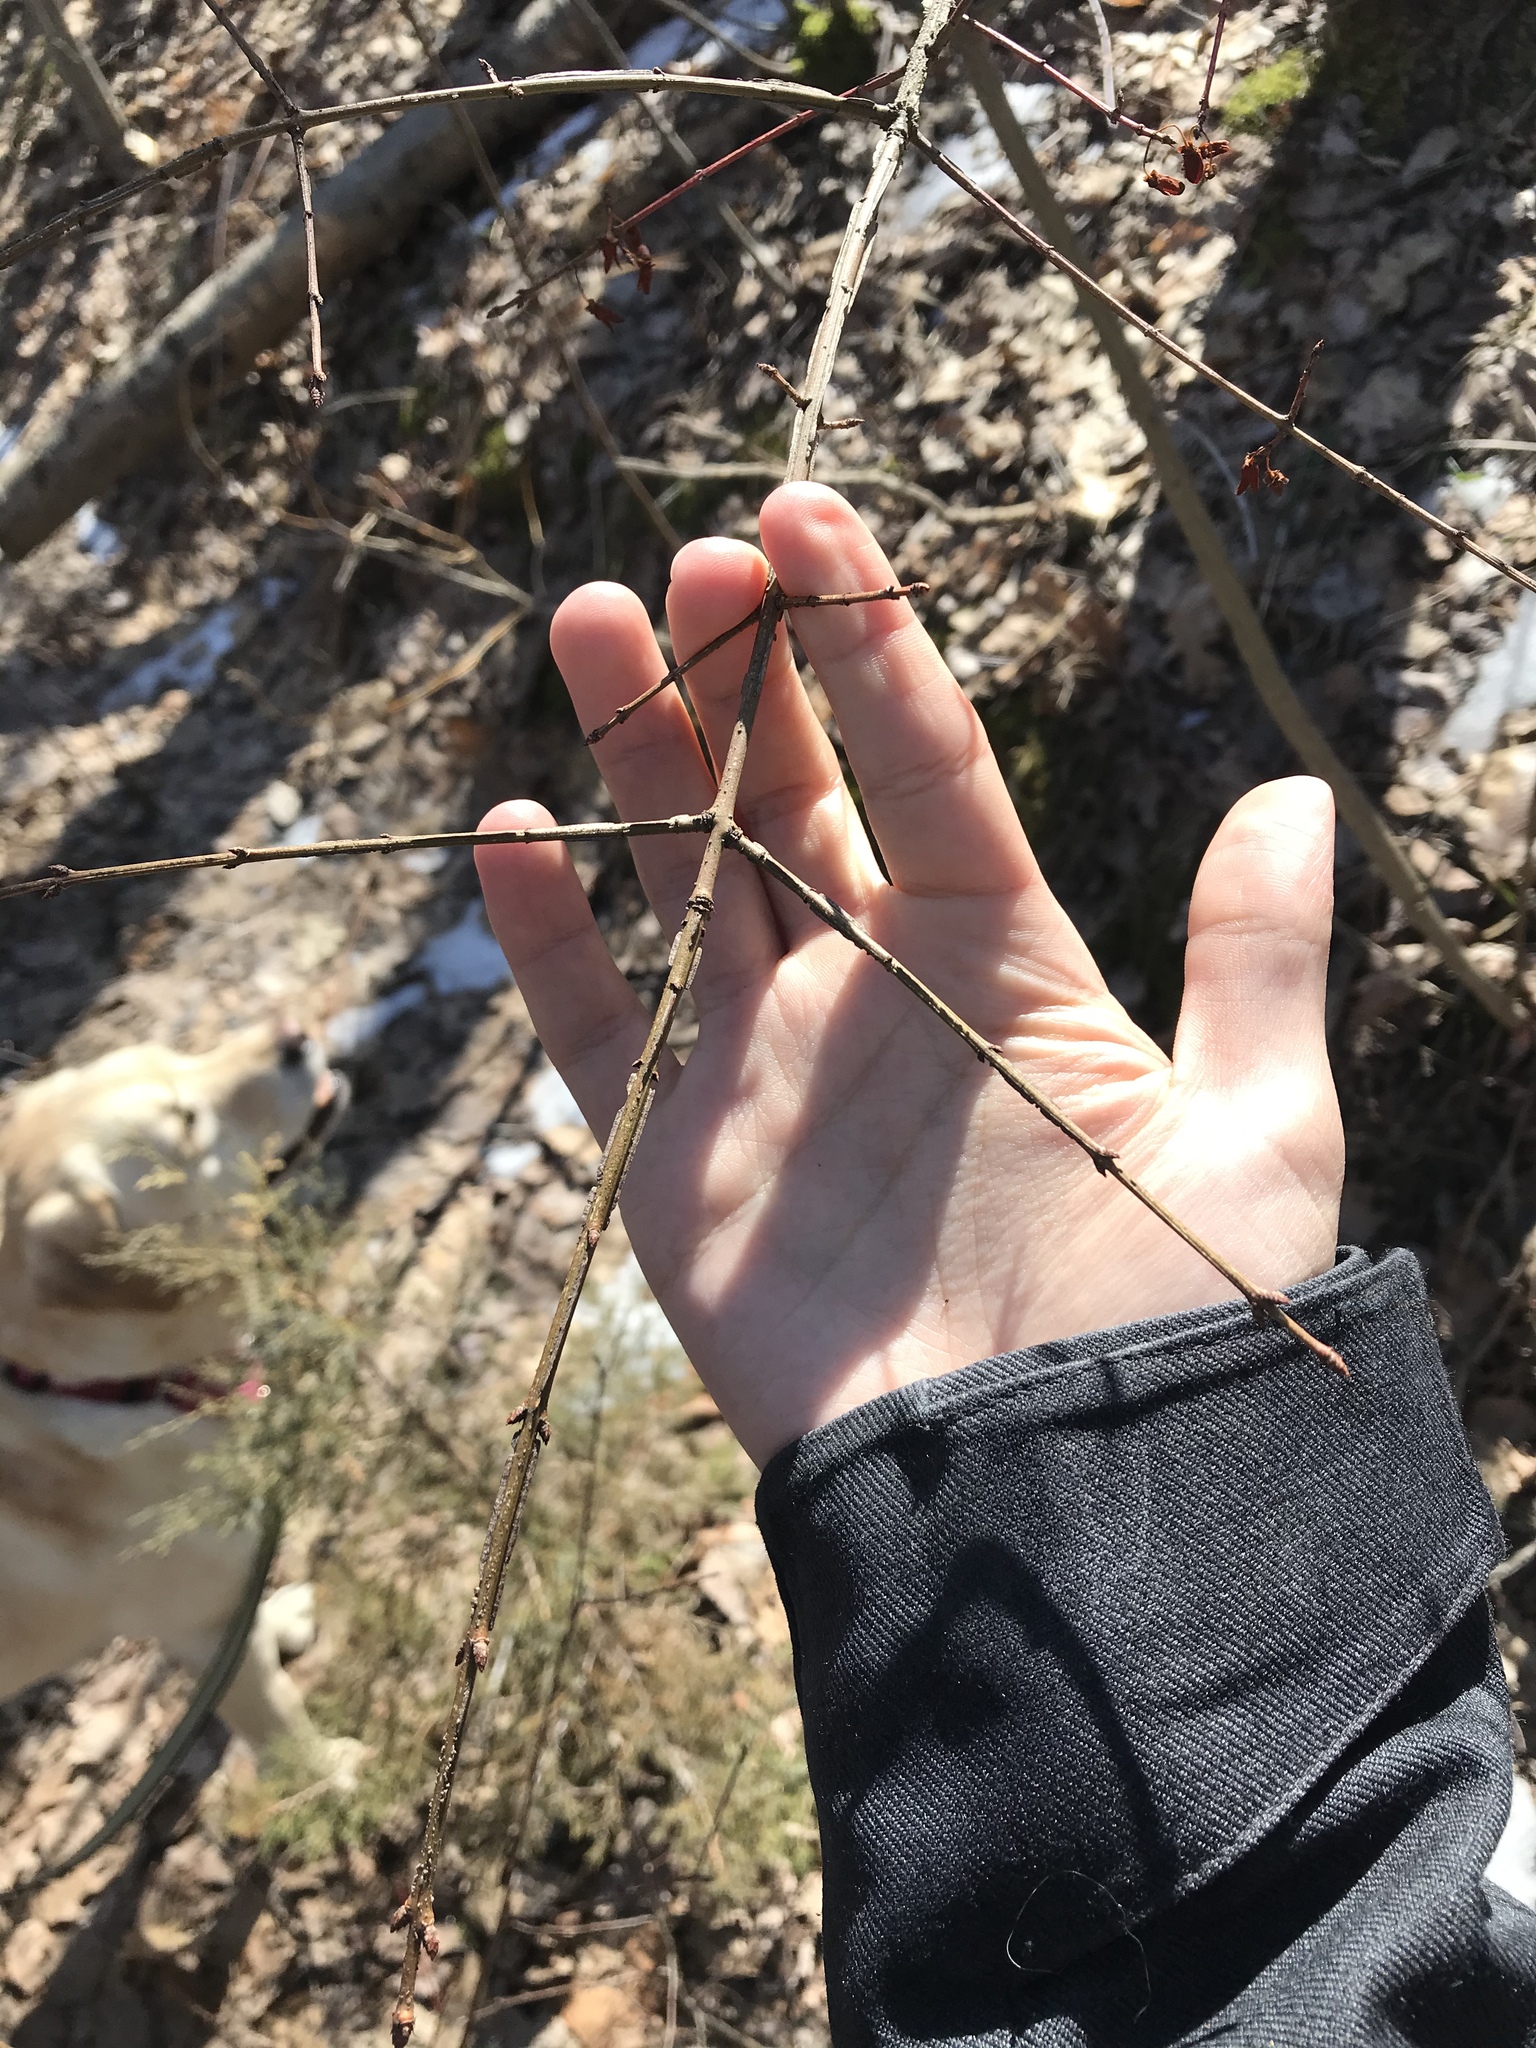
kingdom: Plantae
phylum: Tracheophyta
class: Magnoliopsida
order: Celastrales
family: Celastraceae
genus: Euonymus
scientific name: Euonymus alatus
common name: Winged euonymus
